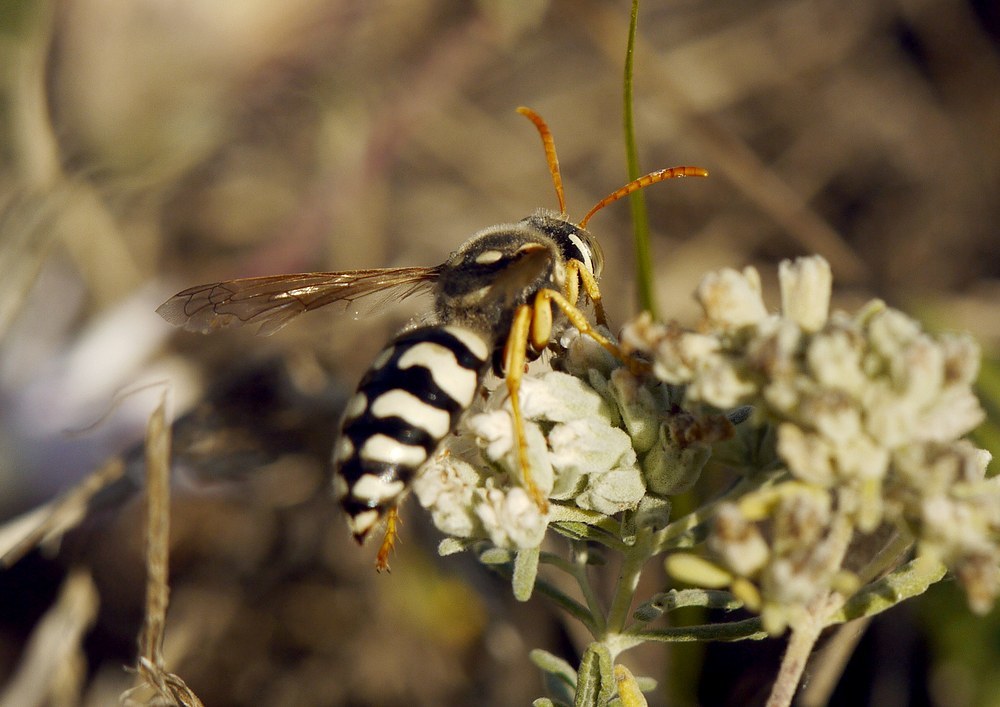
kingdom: Animalia
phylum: Arthropoda
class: Insecta
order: Hymenoptera
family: Crabronidae
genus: Stizus
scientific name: Stizus bipunctatus
